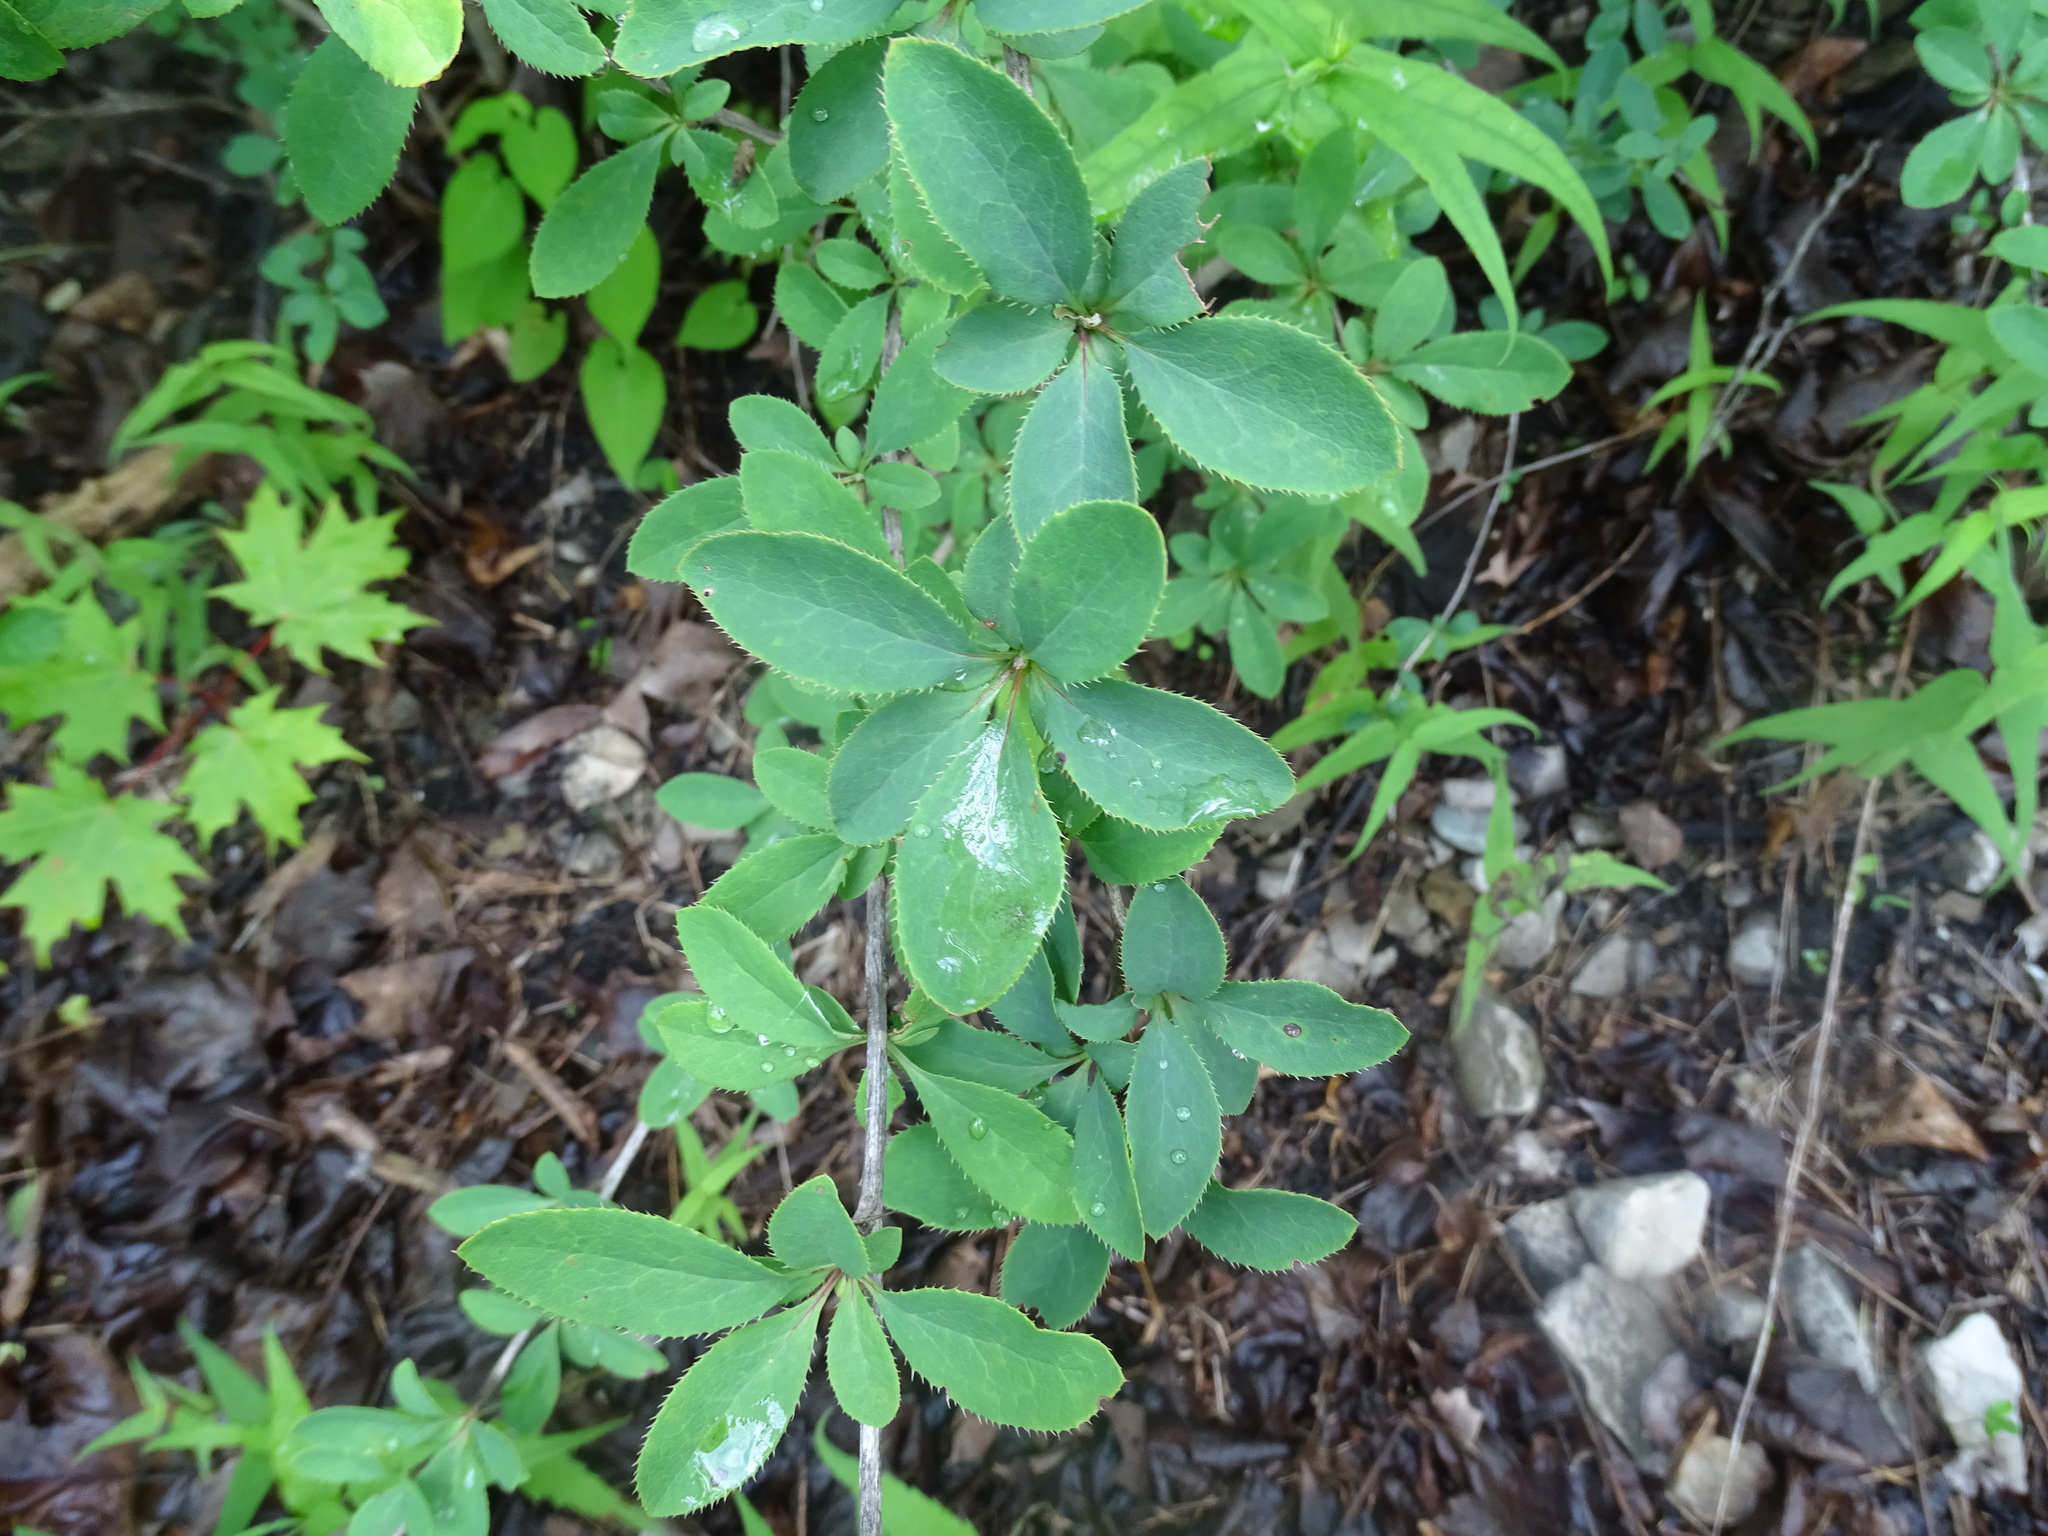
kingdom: Plantae
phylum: Tracheophyta
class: Magnoliopsida
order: Ranunculales
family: Berberidaceae
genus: Berberis
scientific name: Berberis vulgaris
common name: Barberry
